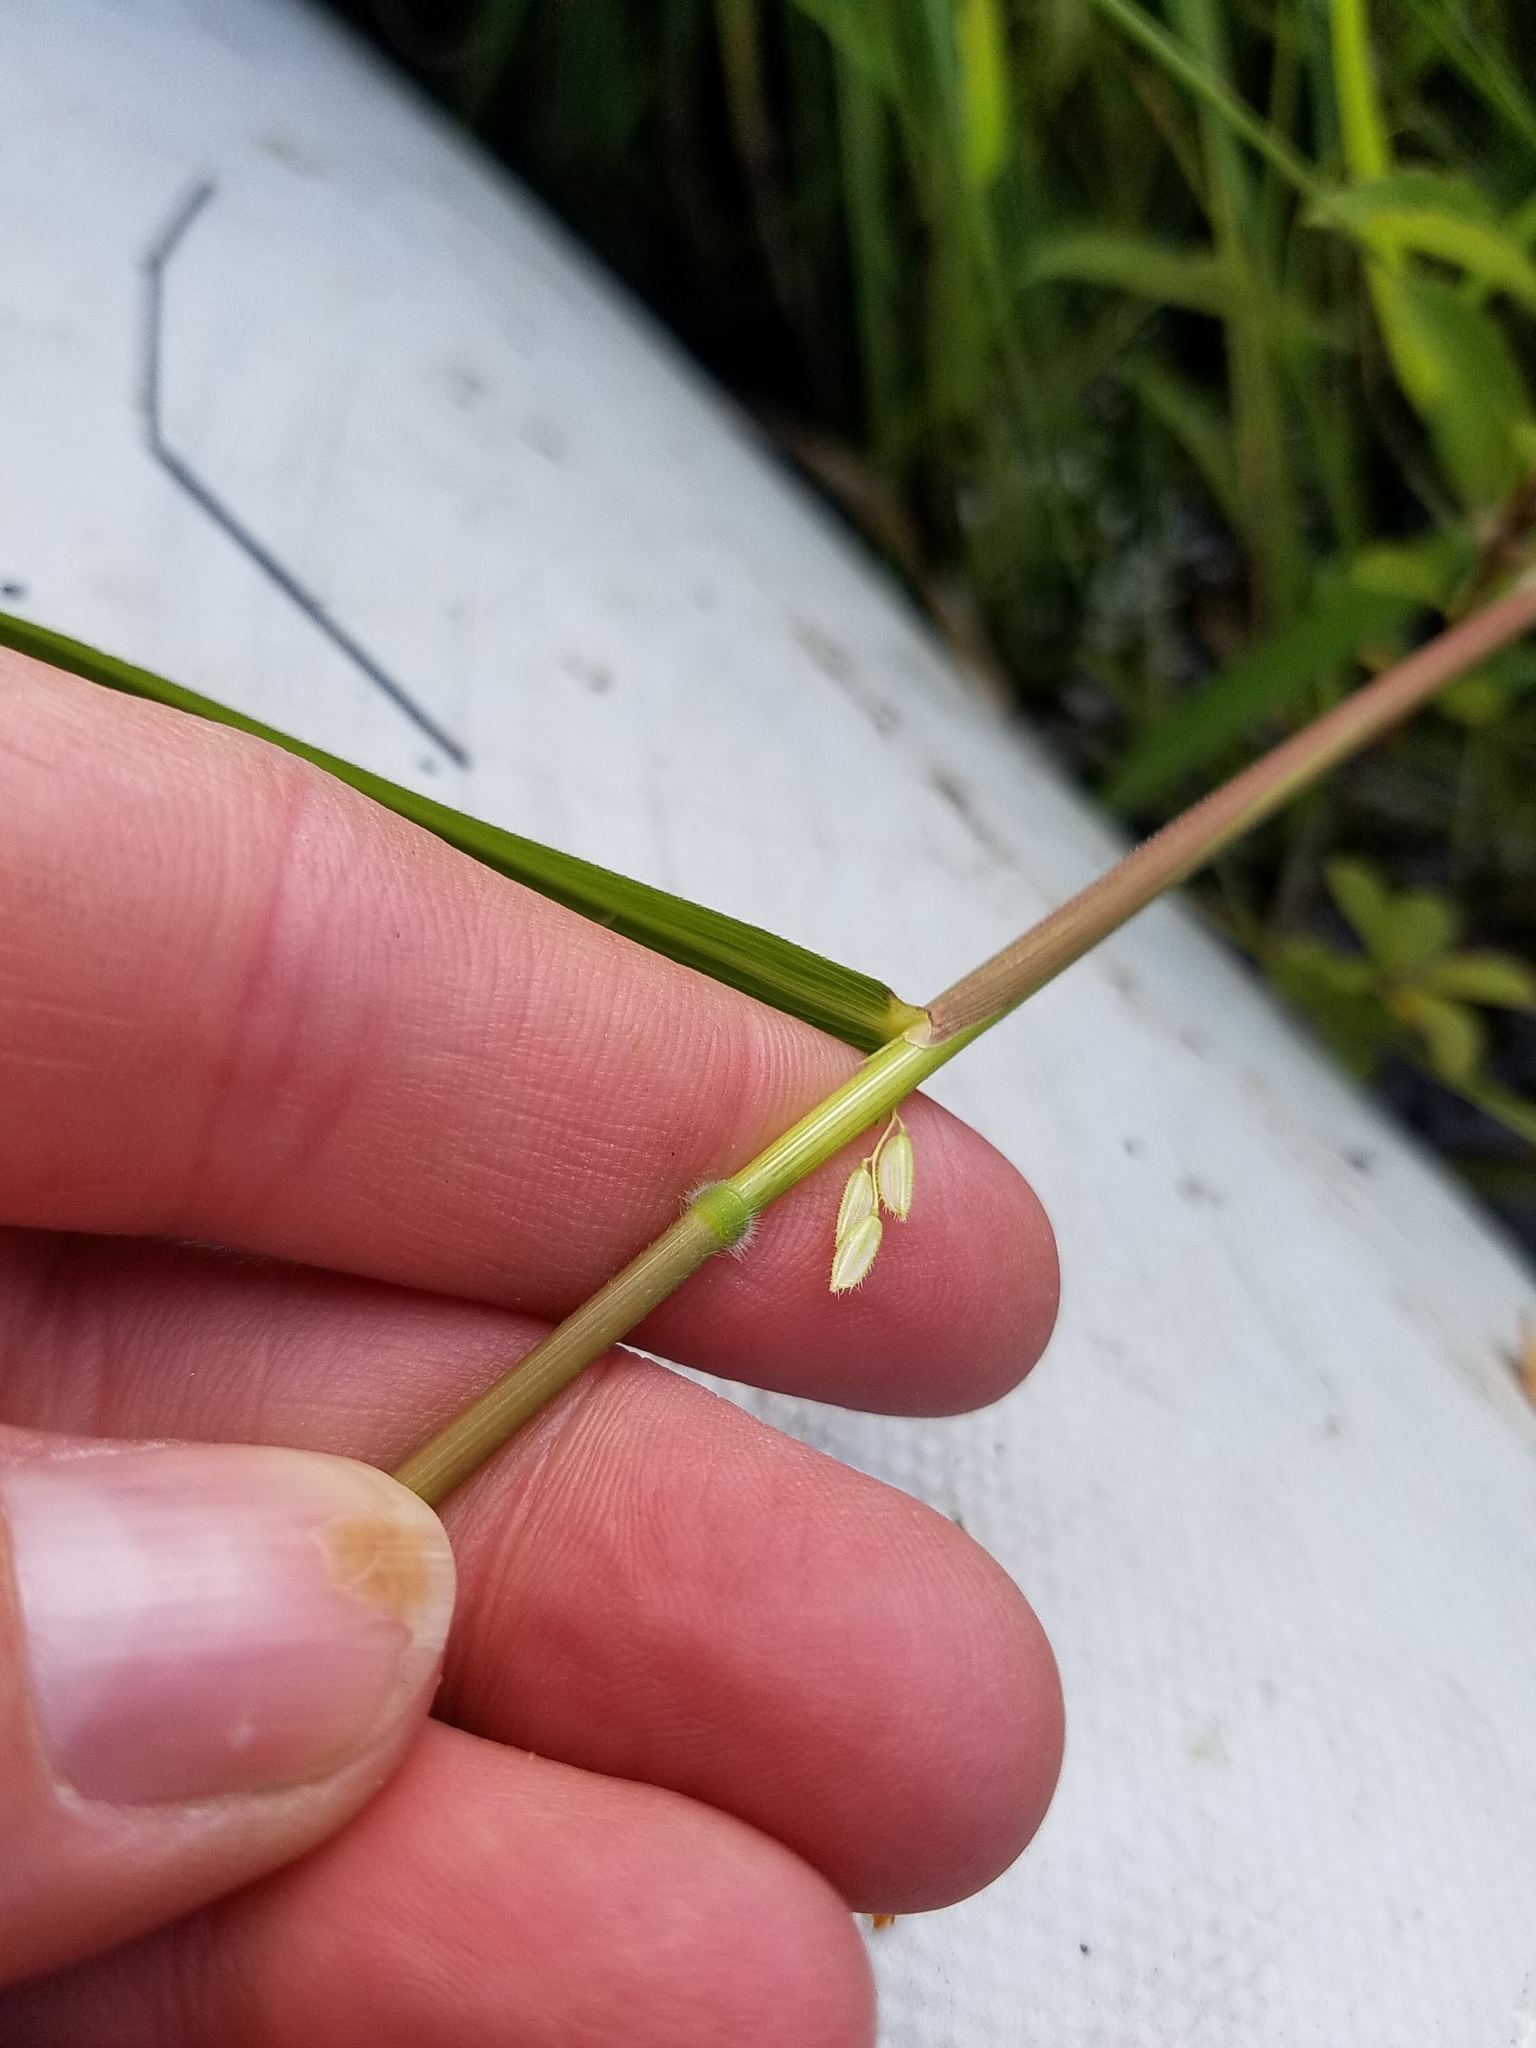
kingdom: Plantae
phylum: Tracheophyta
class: Liliopsida
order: Poales
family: Poaceae
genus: Leersia
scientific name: Leersia oryzoides
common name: Cut-grass
